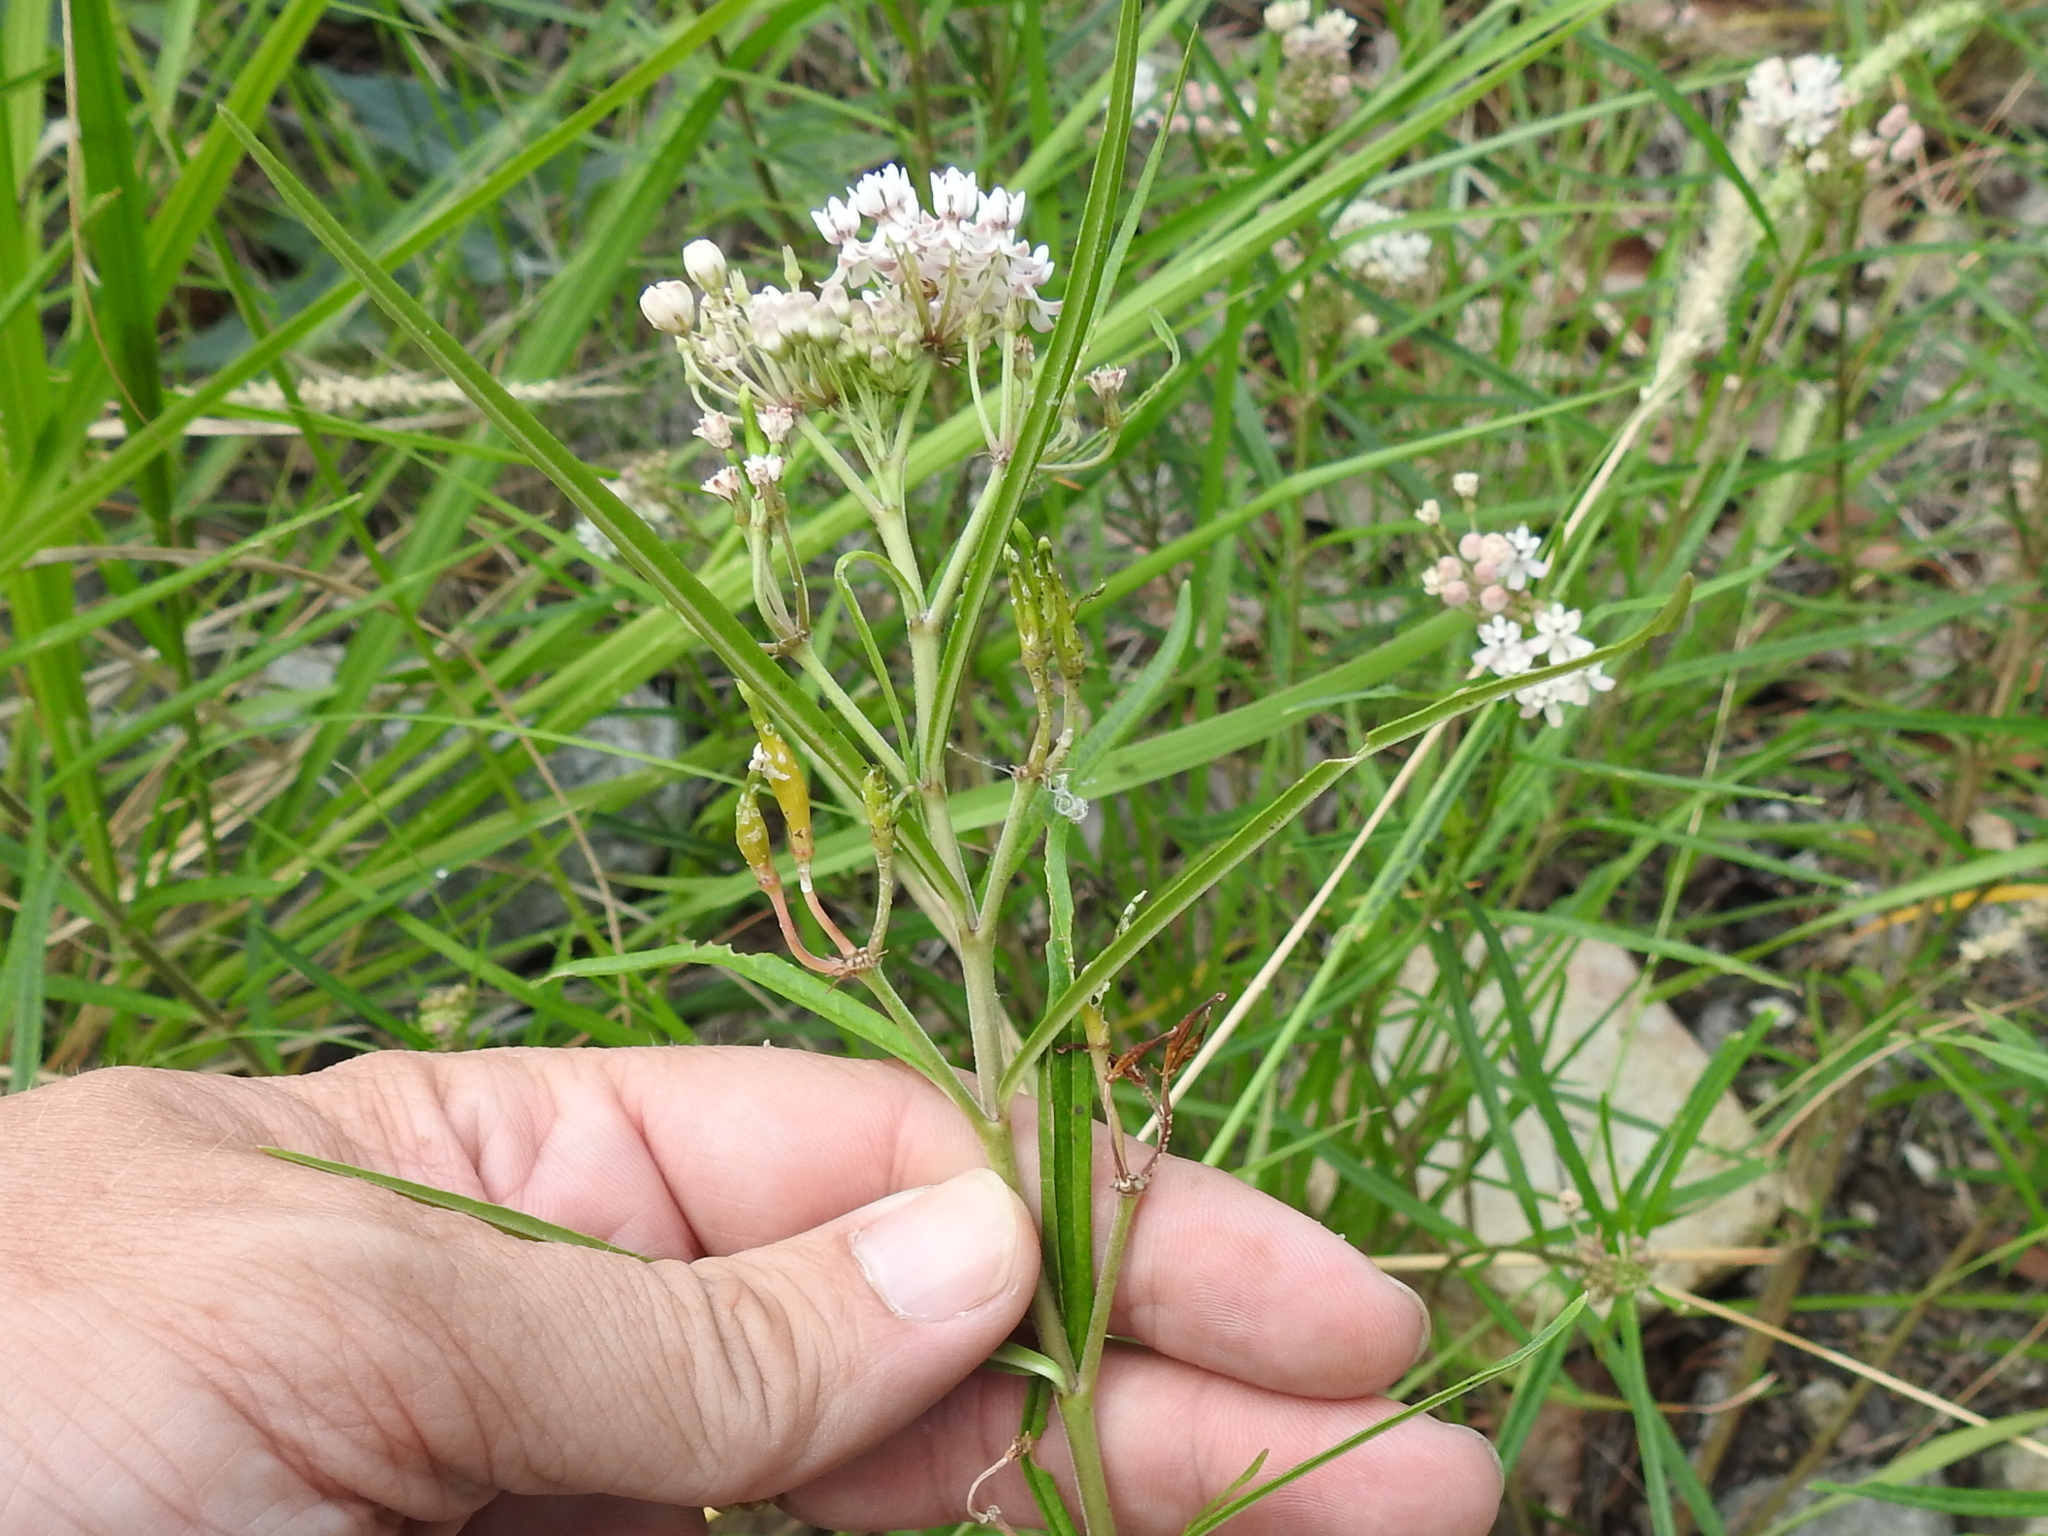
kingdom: Plantae
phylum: Tracheophyta
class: Magnoliopsida
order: Gentianales
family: Apocynaceae
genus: Asclepias
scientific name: Asclepias angustifolia
